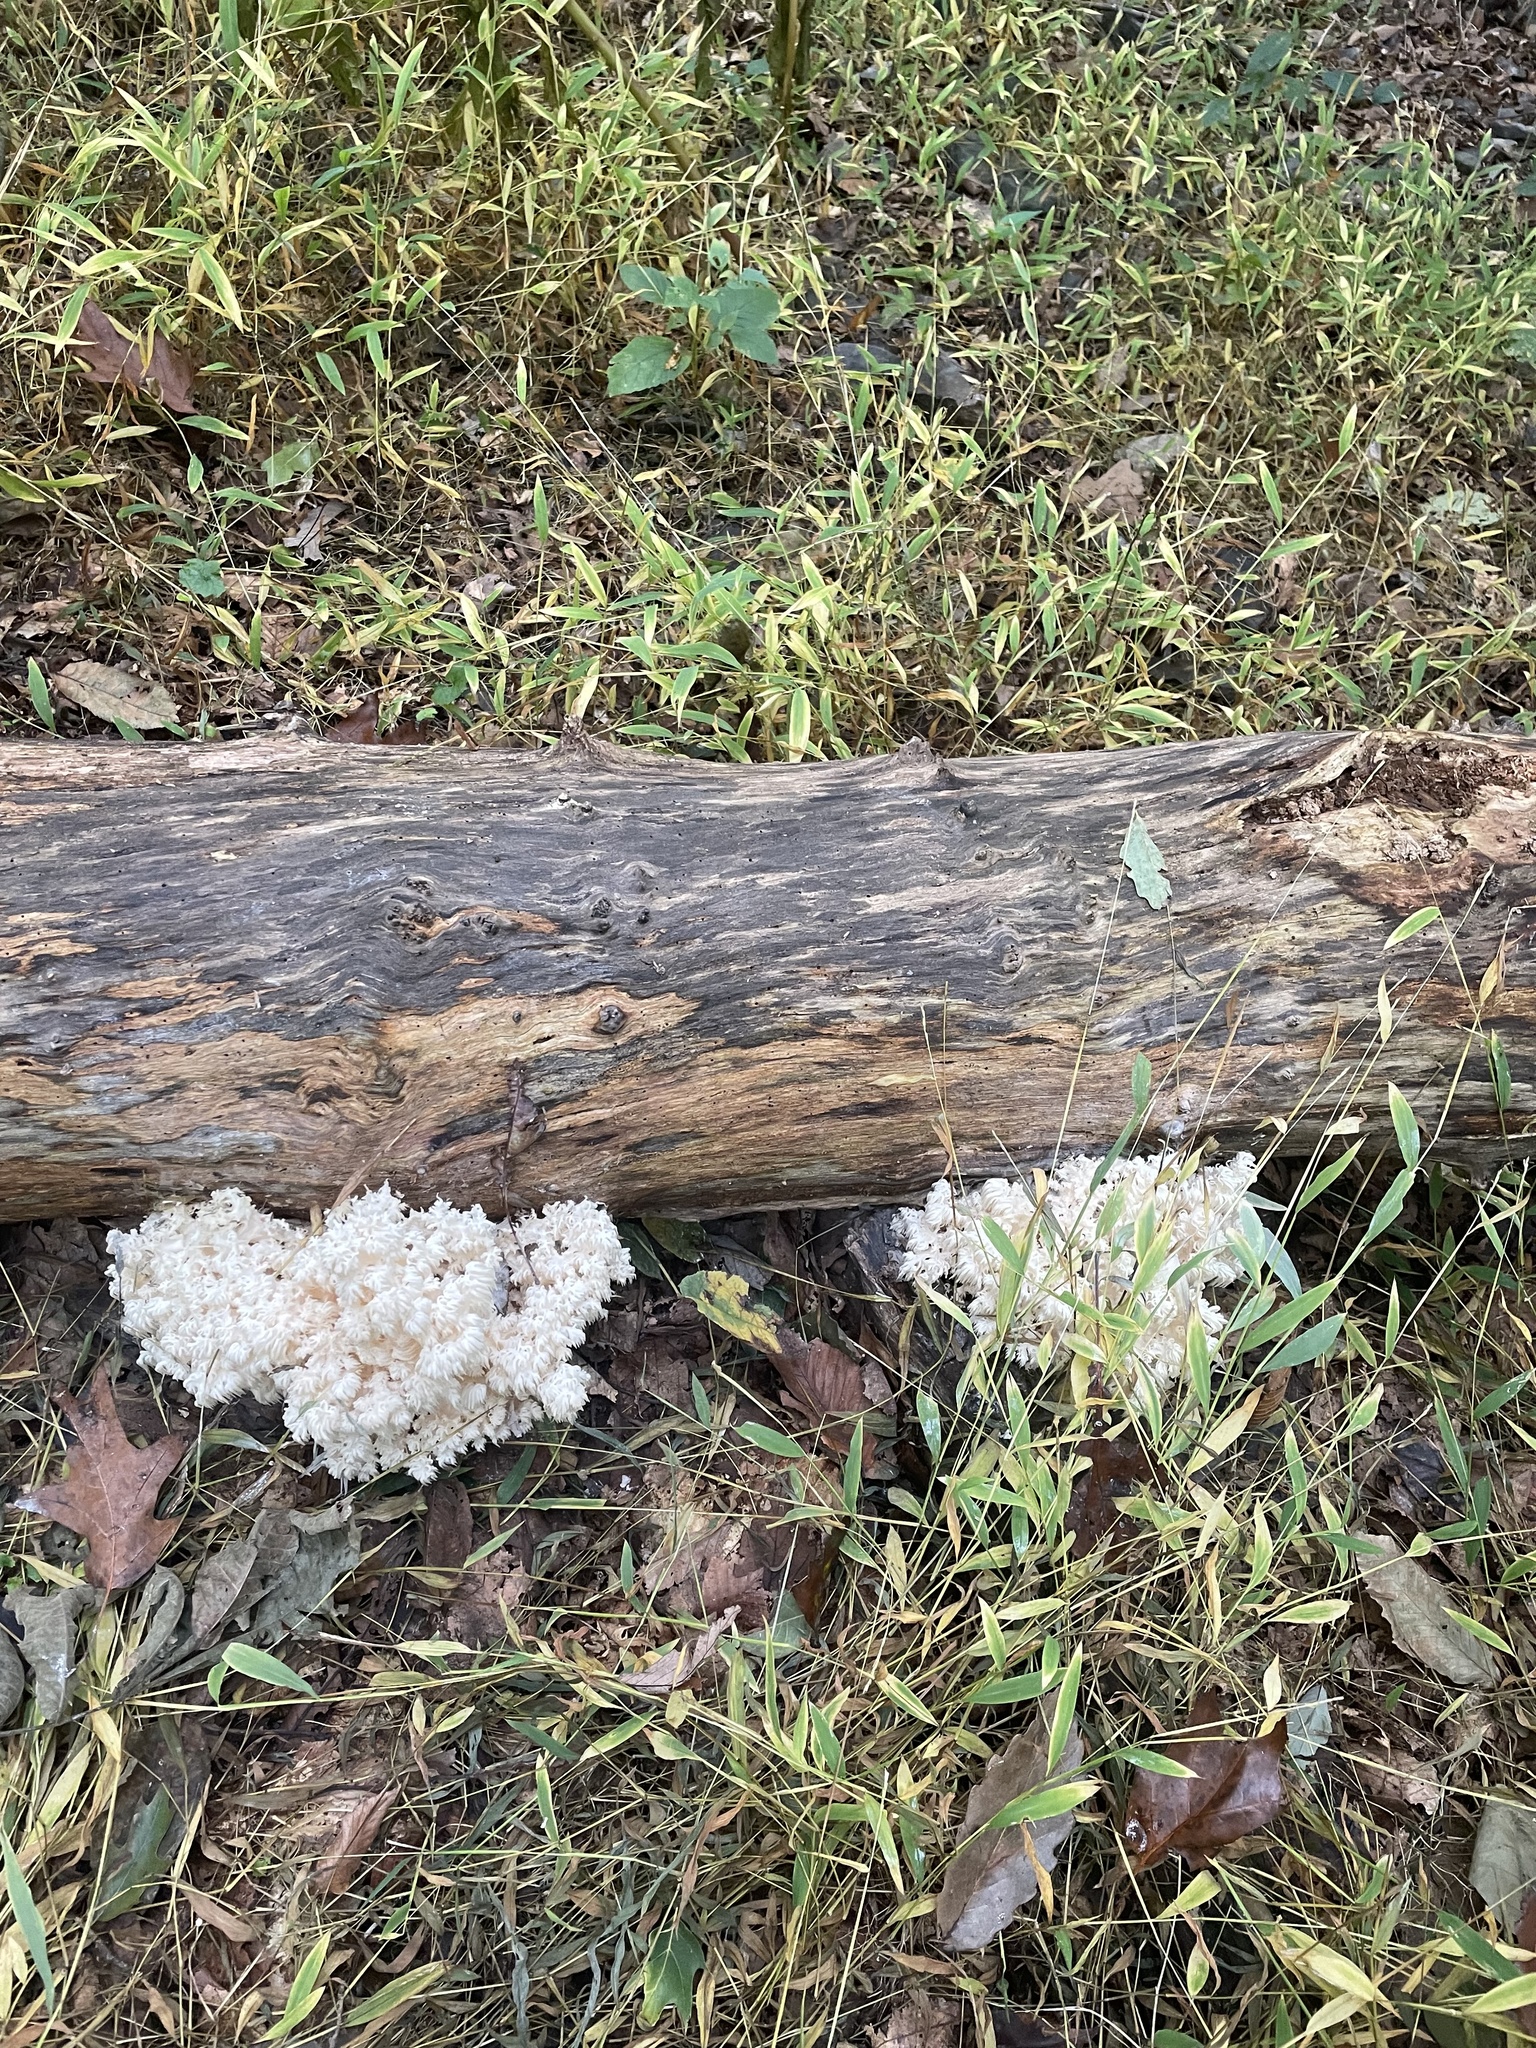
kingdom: Fungi
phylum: Basidiomycota
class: Agaricomycetes
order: Russulales
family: Hericiaceae
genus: Hericium
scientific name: Hericium americanum
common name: Bear's head tooth
